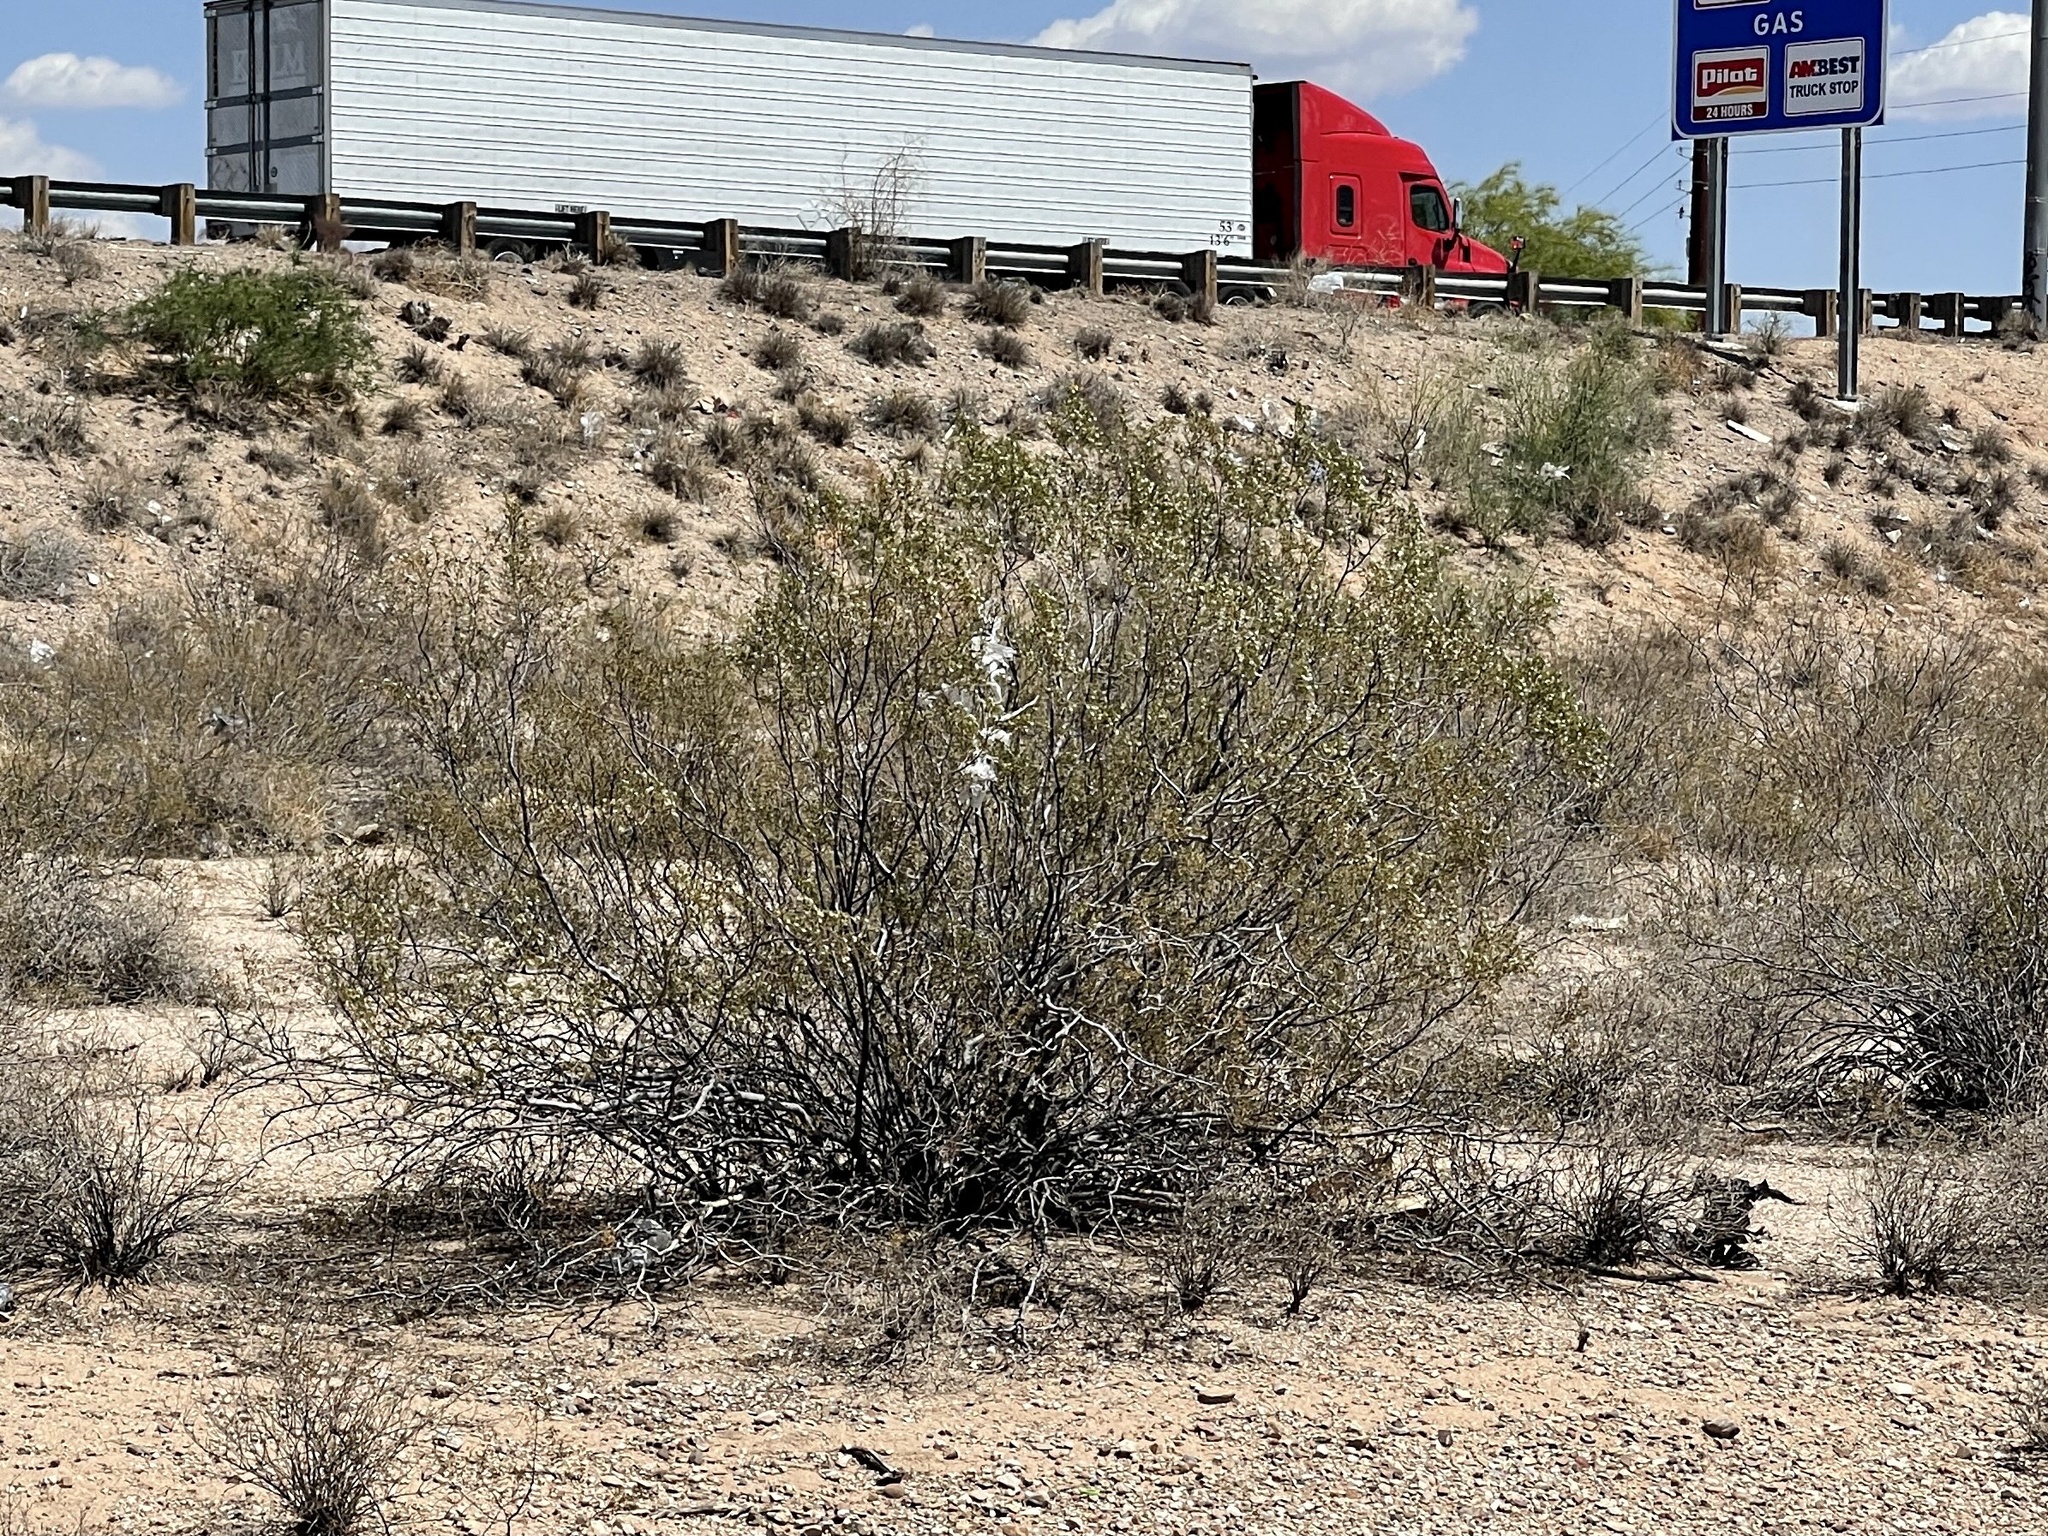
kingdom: Plantae
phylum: Tracheophyta
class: Magnoliopsida
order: Zygophyllales
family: Zygophyllaceae
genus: Larrea
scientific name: Larrea tridentata
